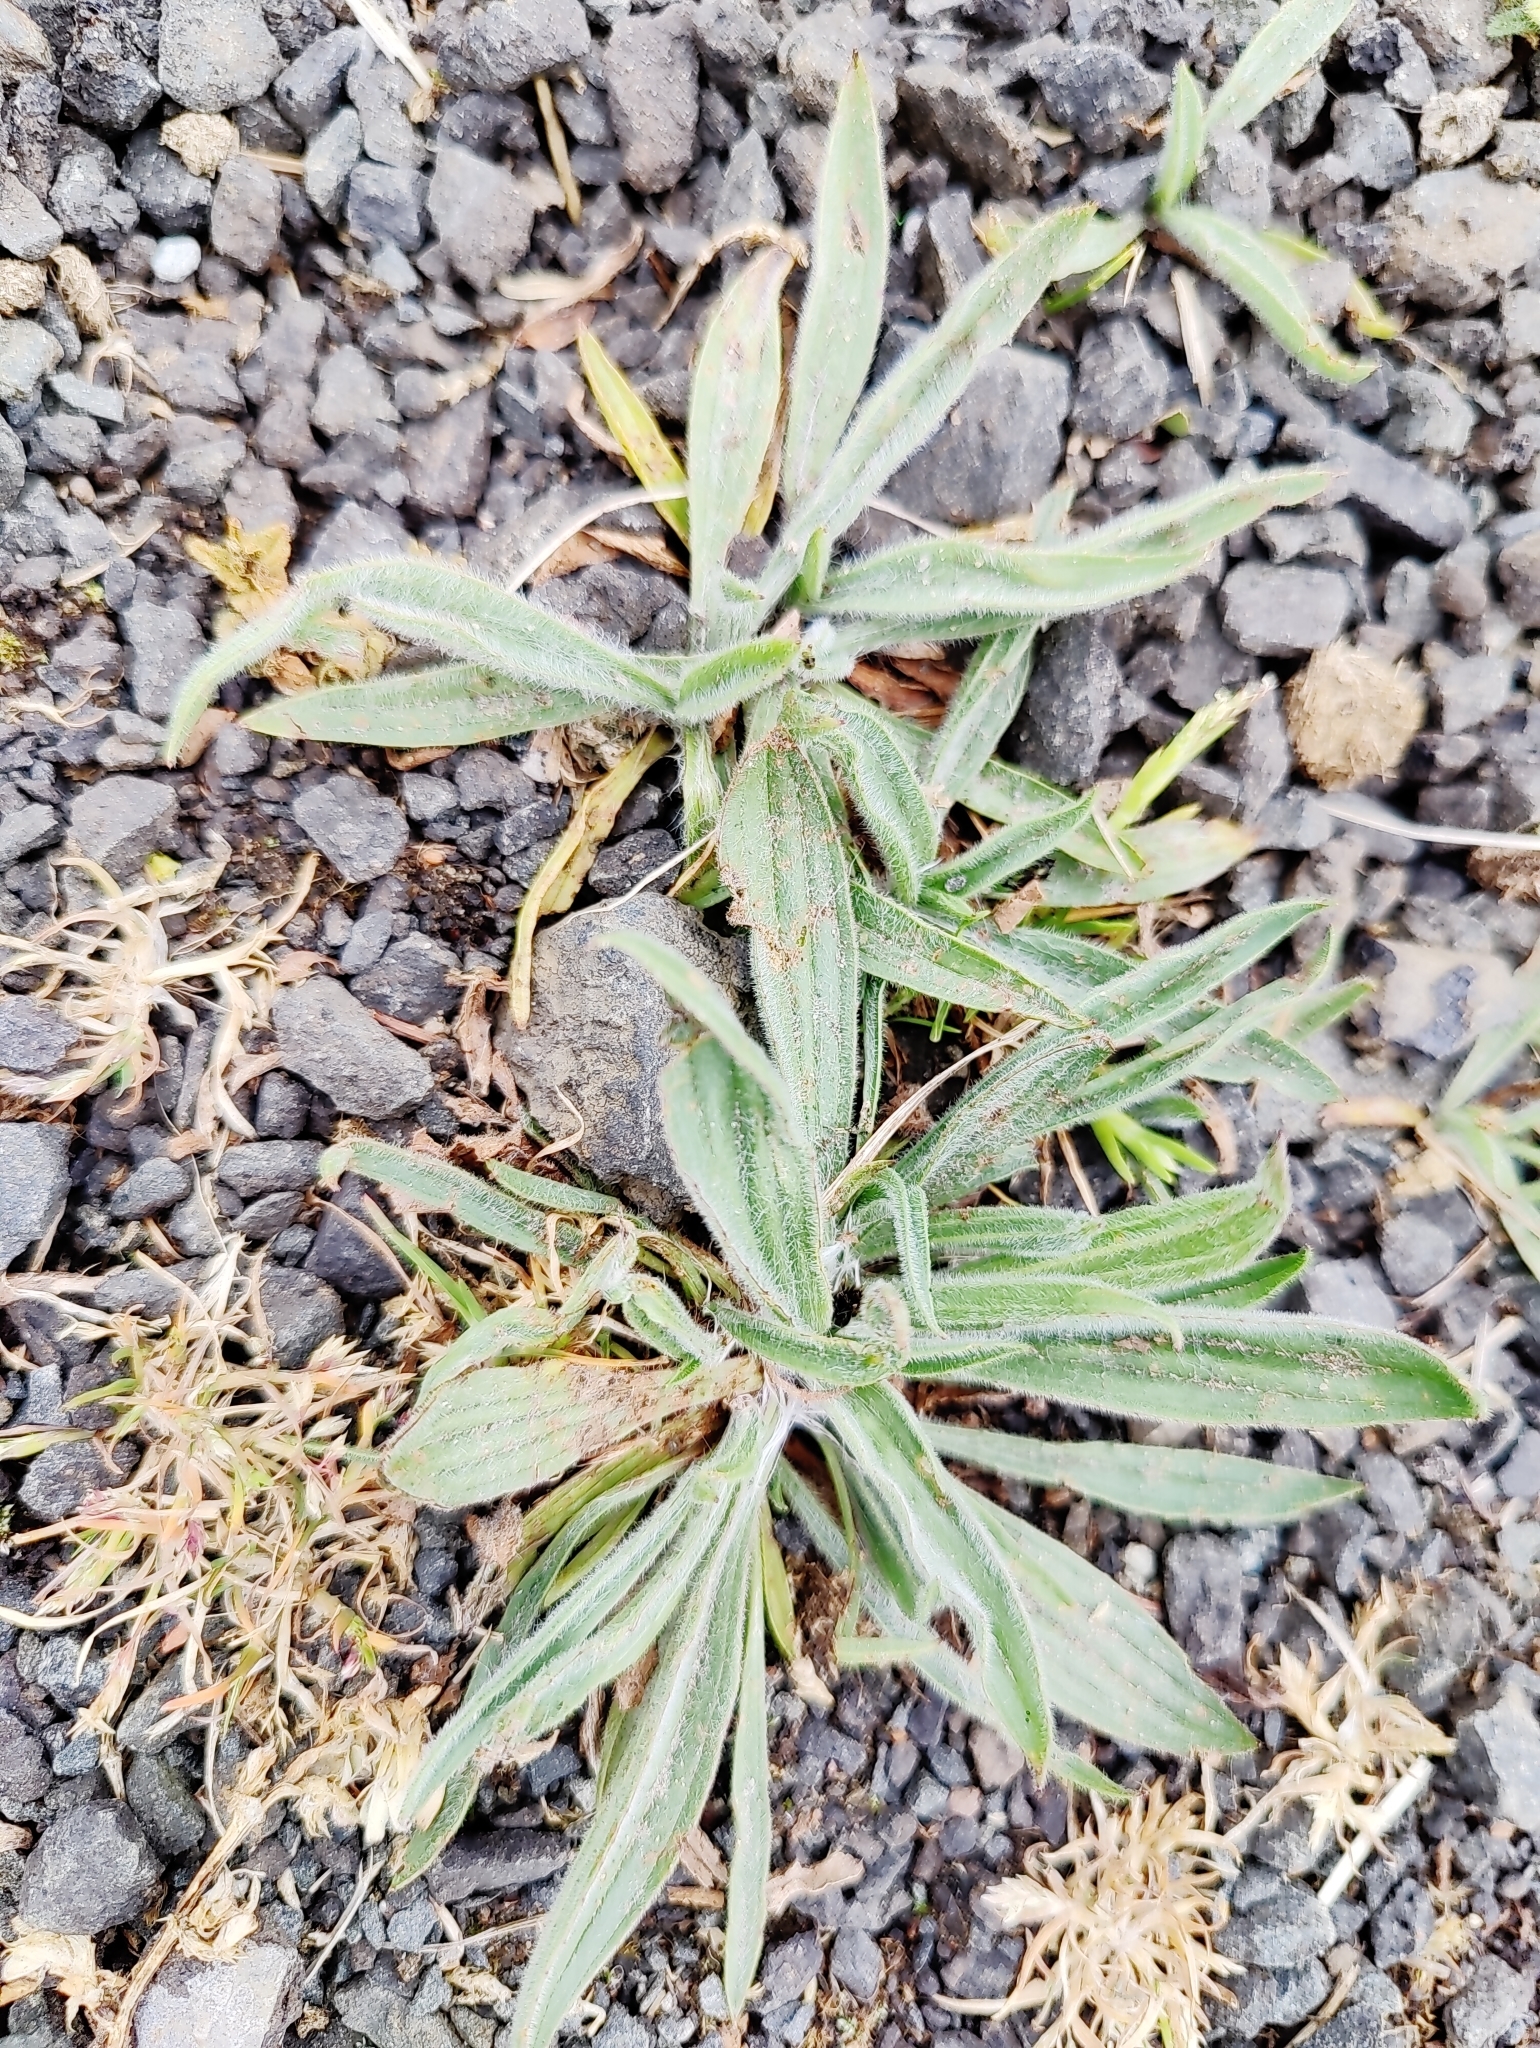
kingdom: Plantae
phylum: Tracheophyta
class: Magnoliopsida
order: Lamiales
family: Plantaginaceae
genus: Plantago
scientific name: Plantago lanceolata
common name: Ribwort plantain
